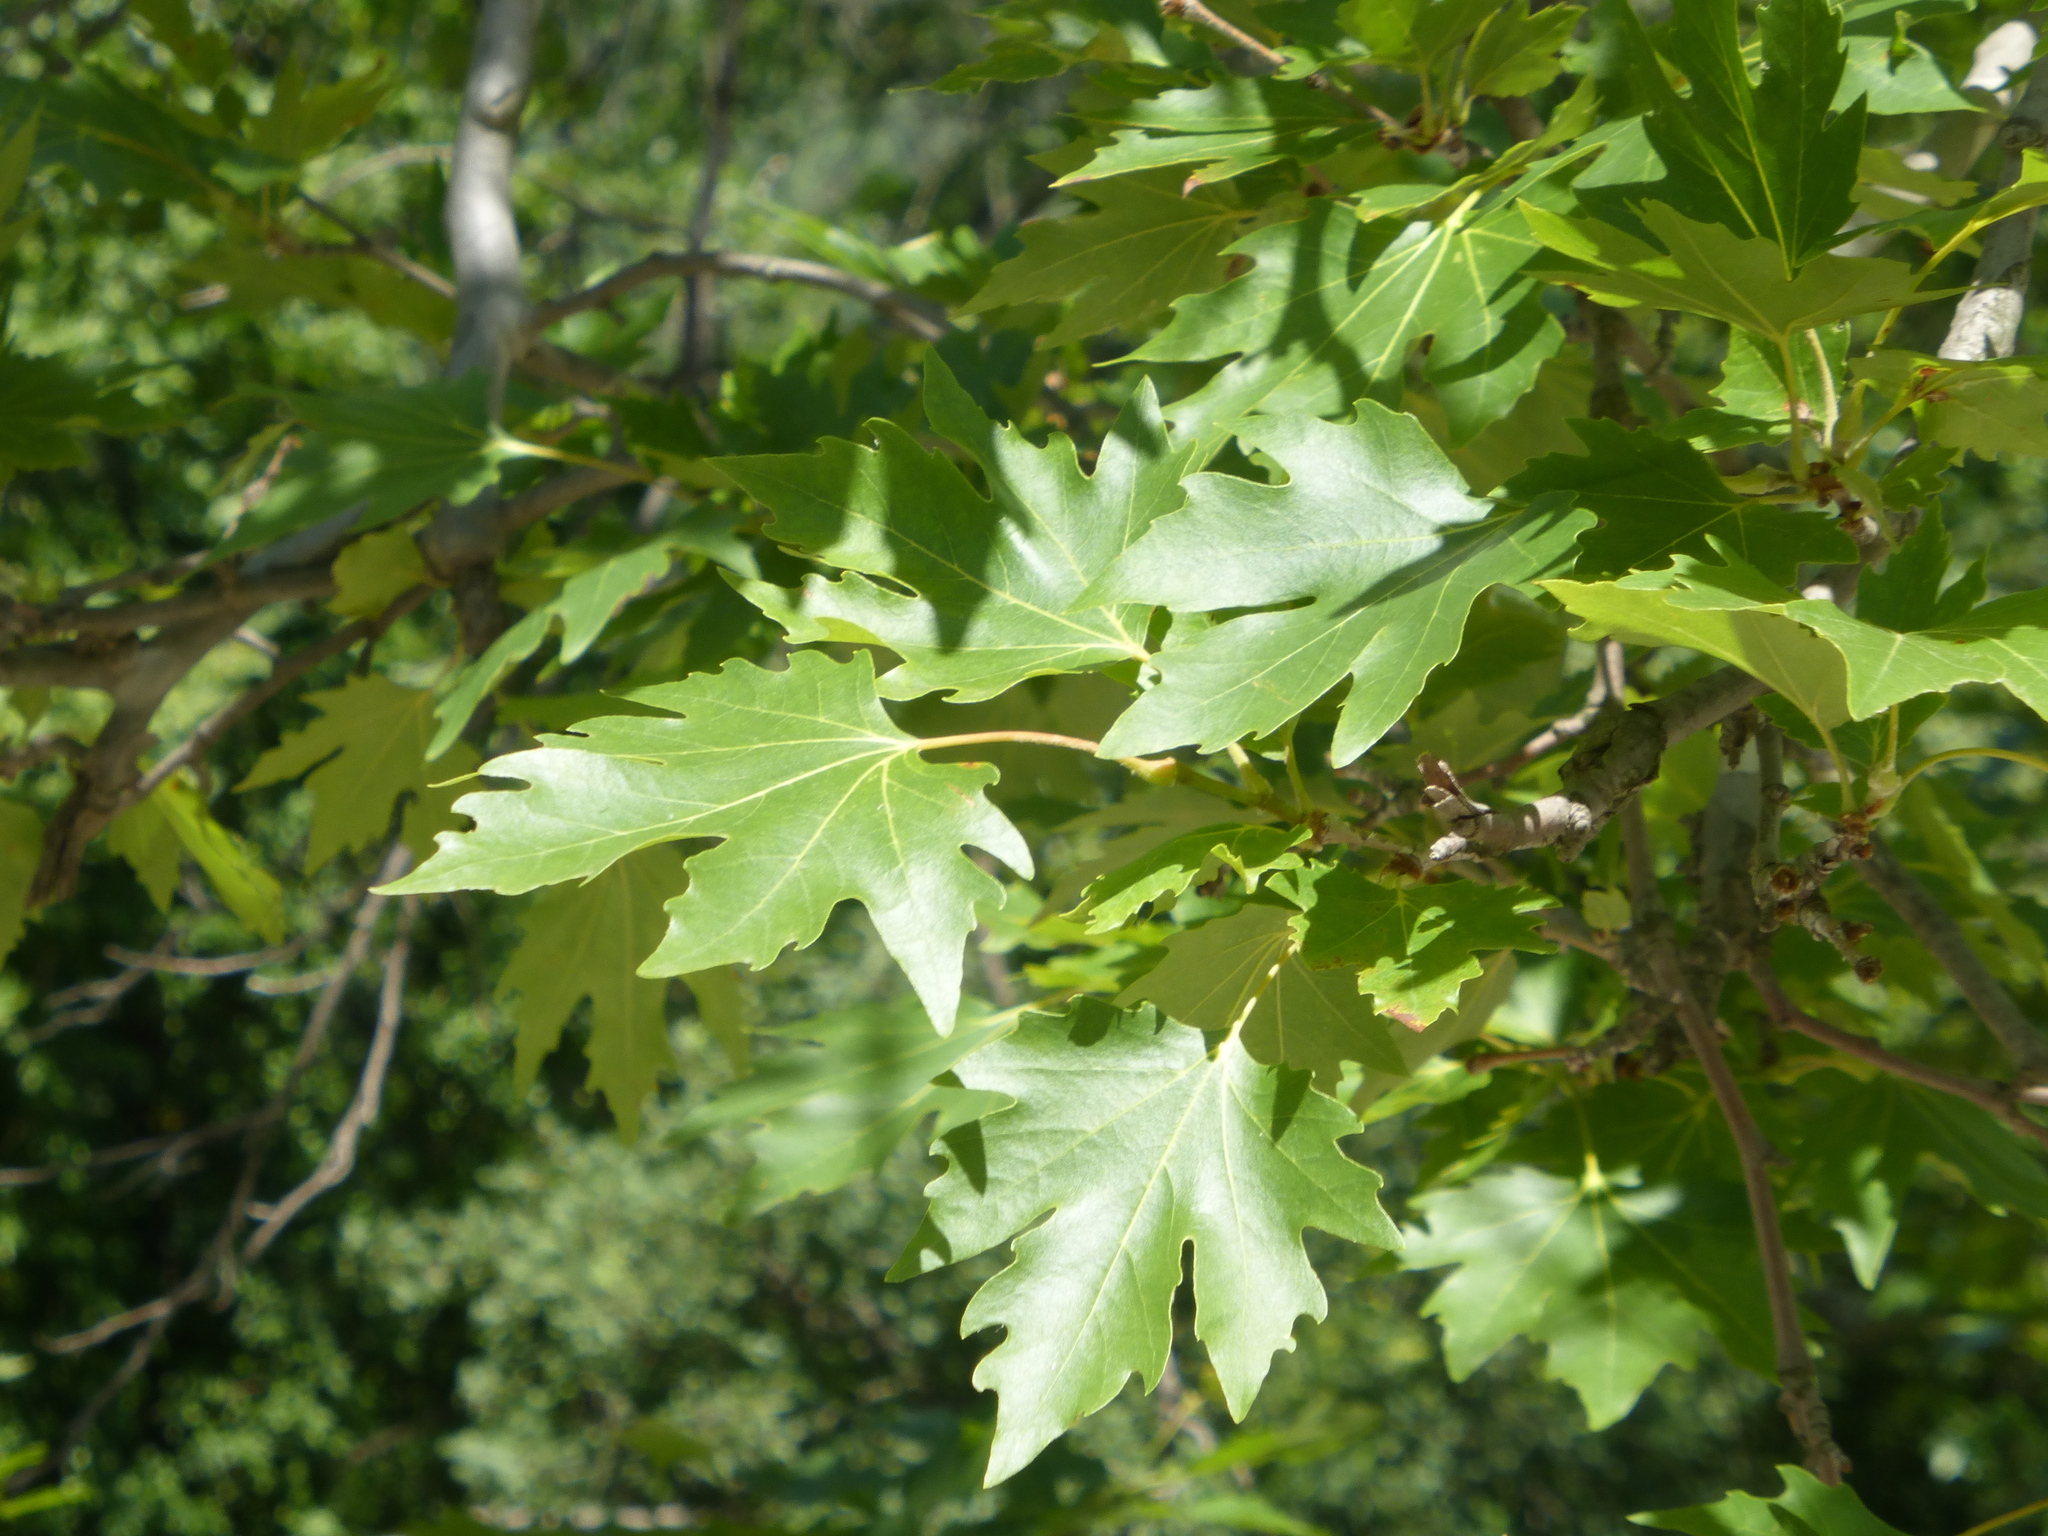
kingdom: Plantae
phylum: Tracheophyta
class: Magnoliopsida
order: Proteales
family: Platanaceae
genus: Platanus
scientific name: Platanus orientalis
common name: Oriental plane
